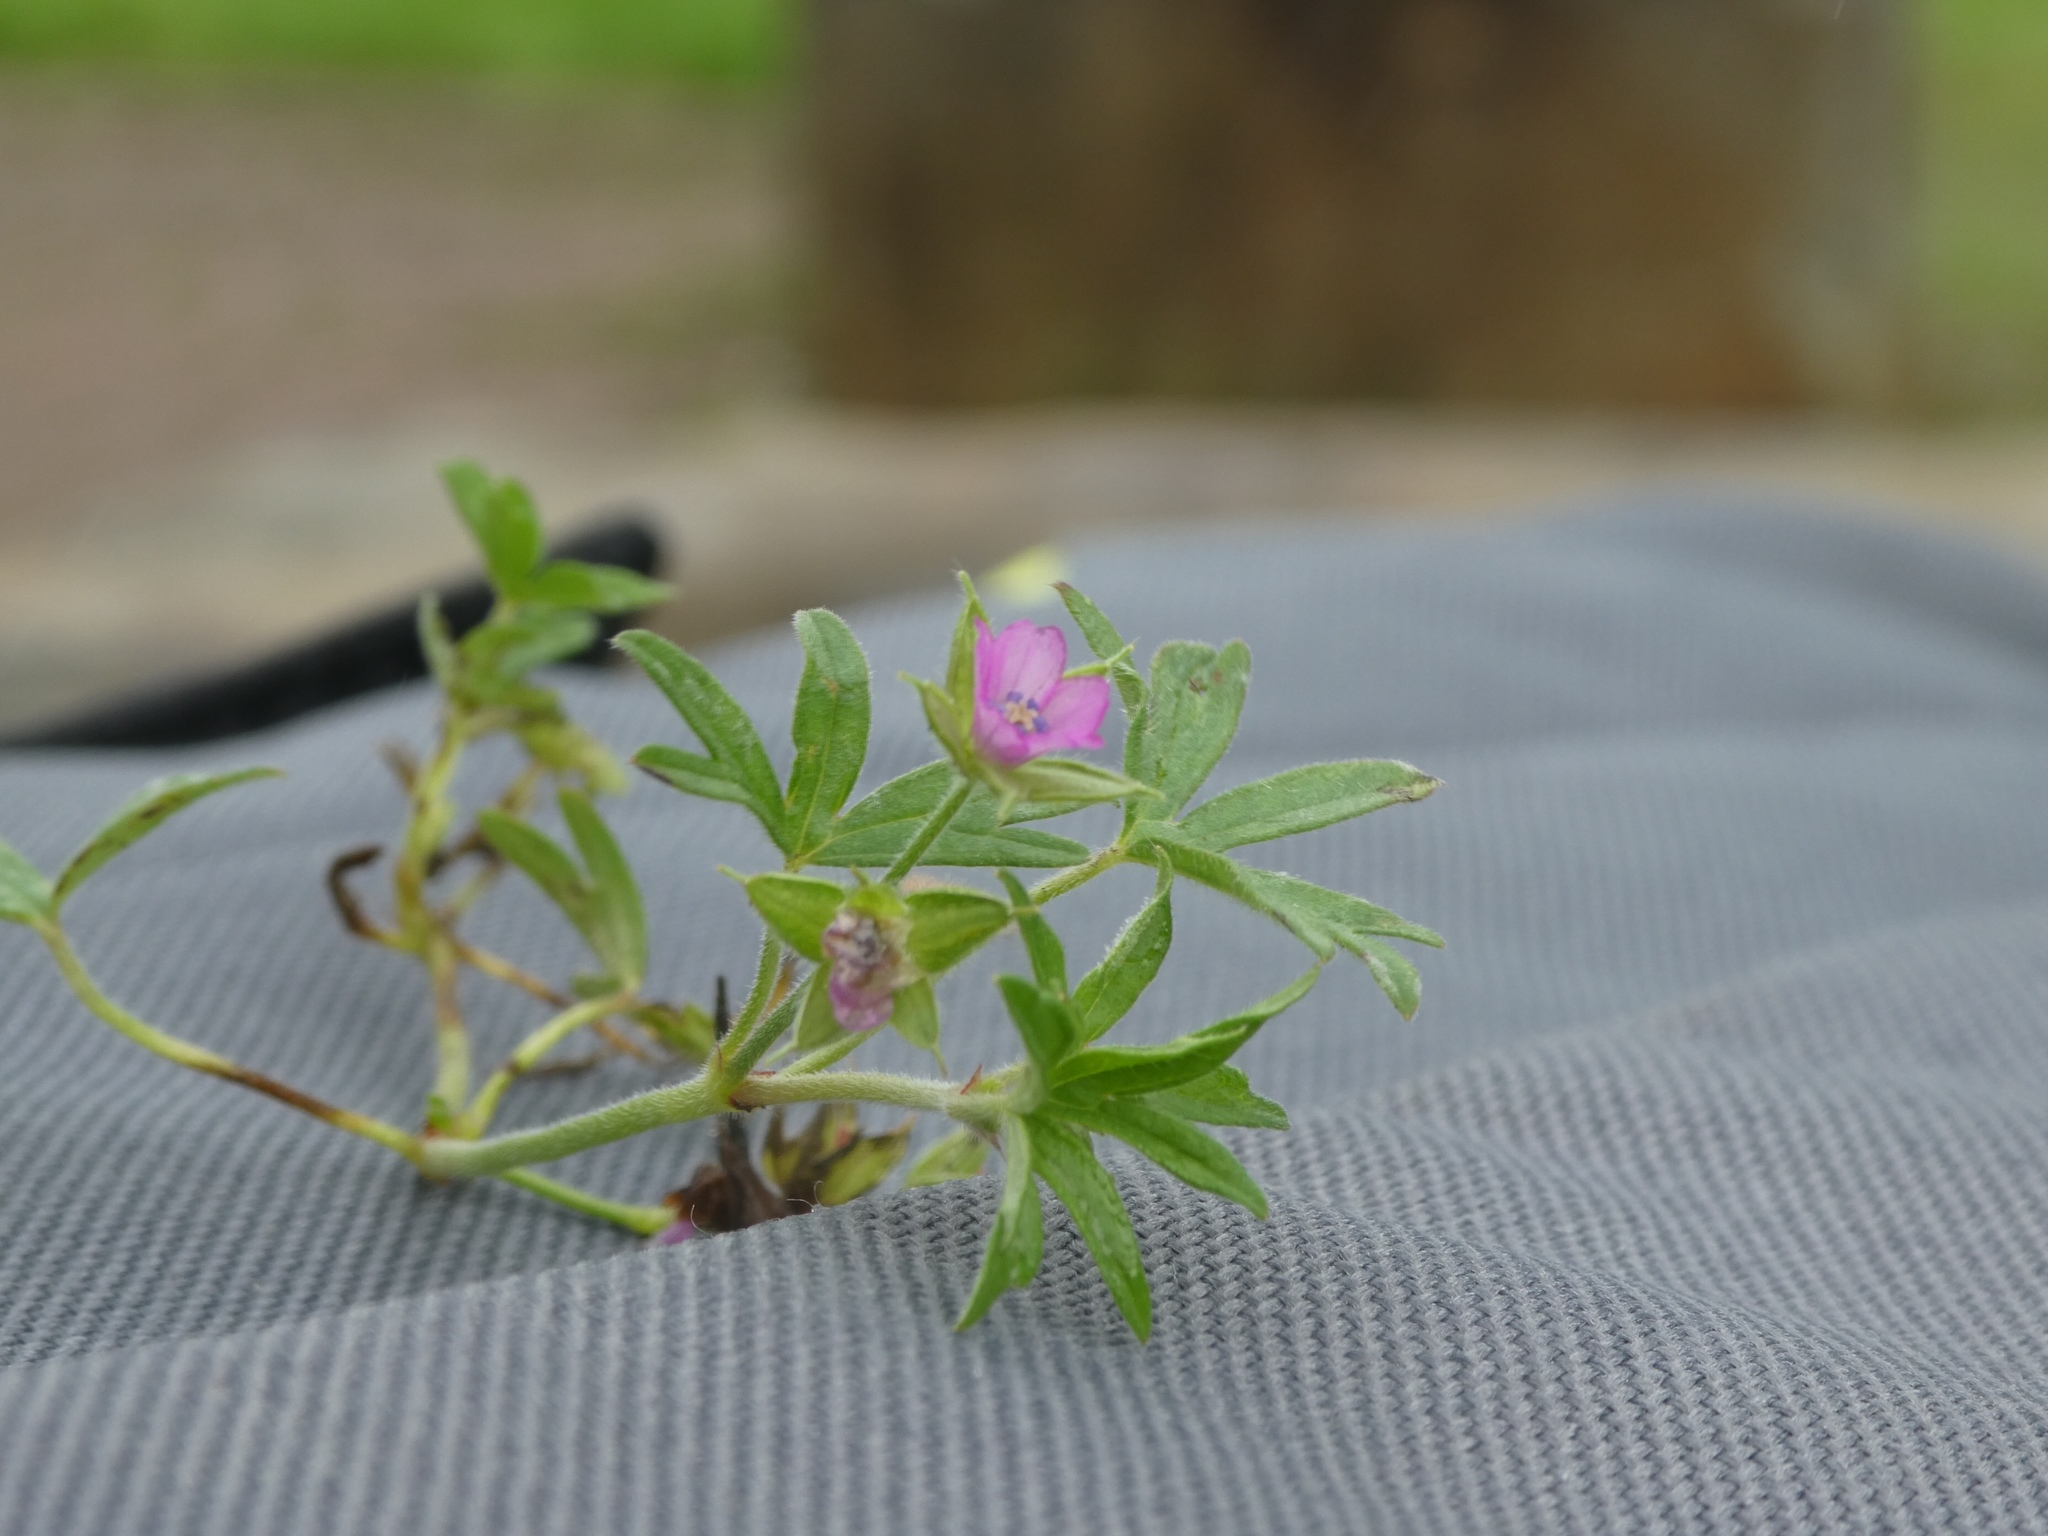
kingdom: Plantae
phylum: Tracheophyta
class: Magnoliopsida
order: Geraniales
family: Geraniaceae
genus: Geranium
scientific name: Geranium dissectum
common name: Cut-leaved crane's-bill
